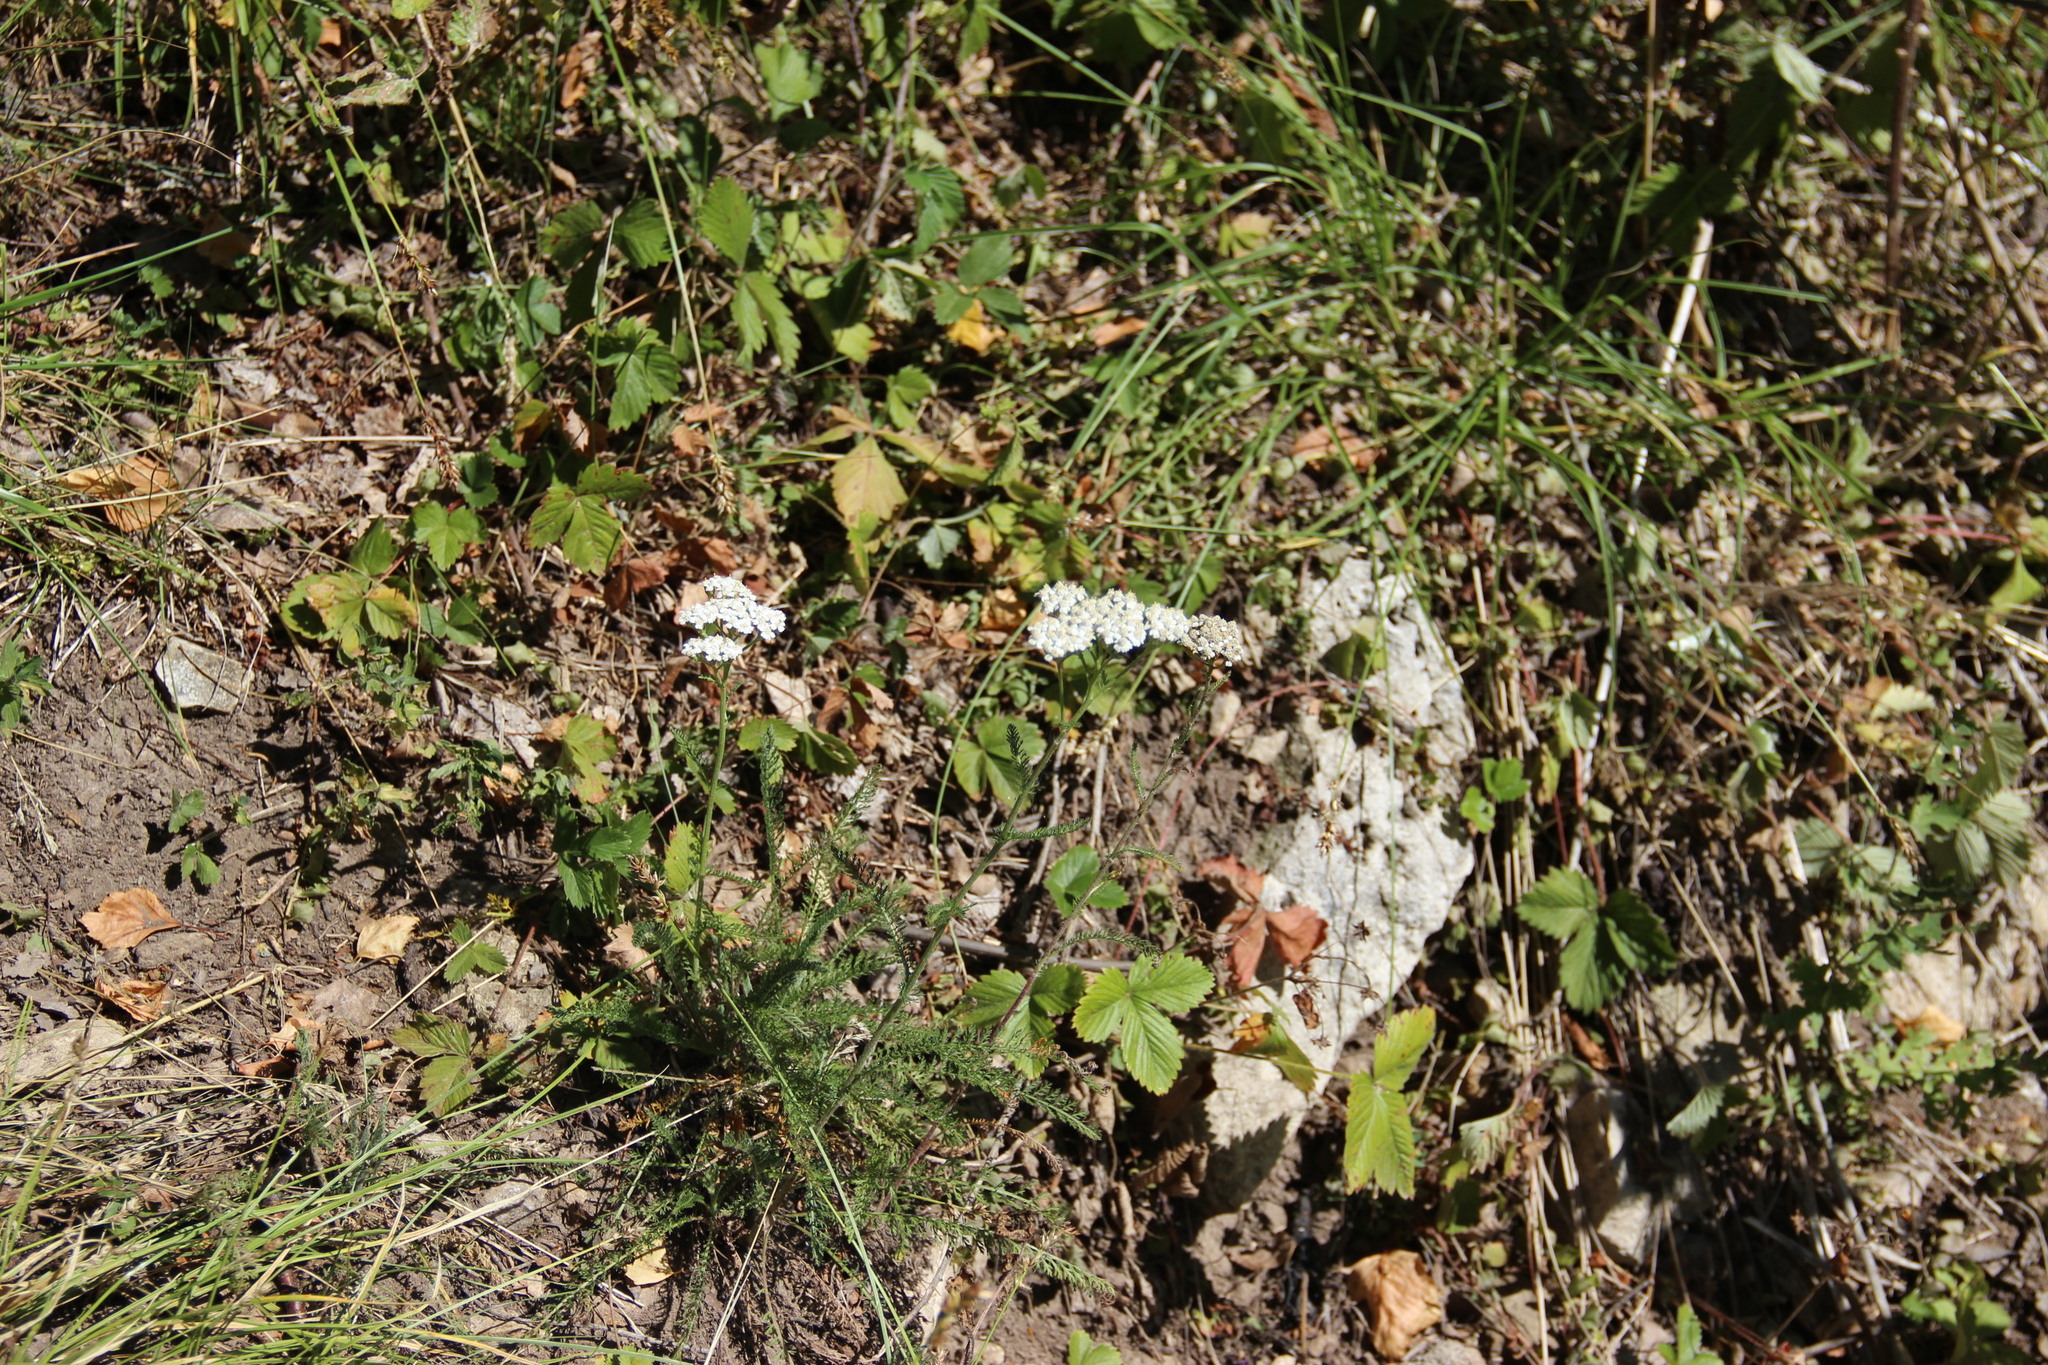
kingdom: Plantae
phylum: Tracheophyta
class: Magnoliopsida
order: Asterales
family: Asteraceae
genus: Achillea
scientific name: Achillea millefolium
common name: Yarrow
